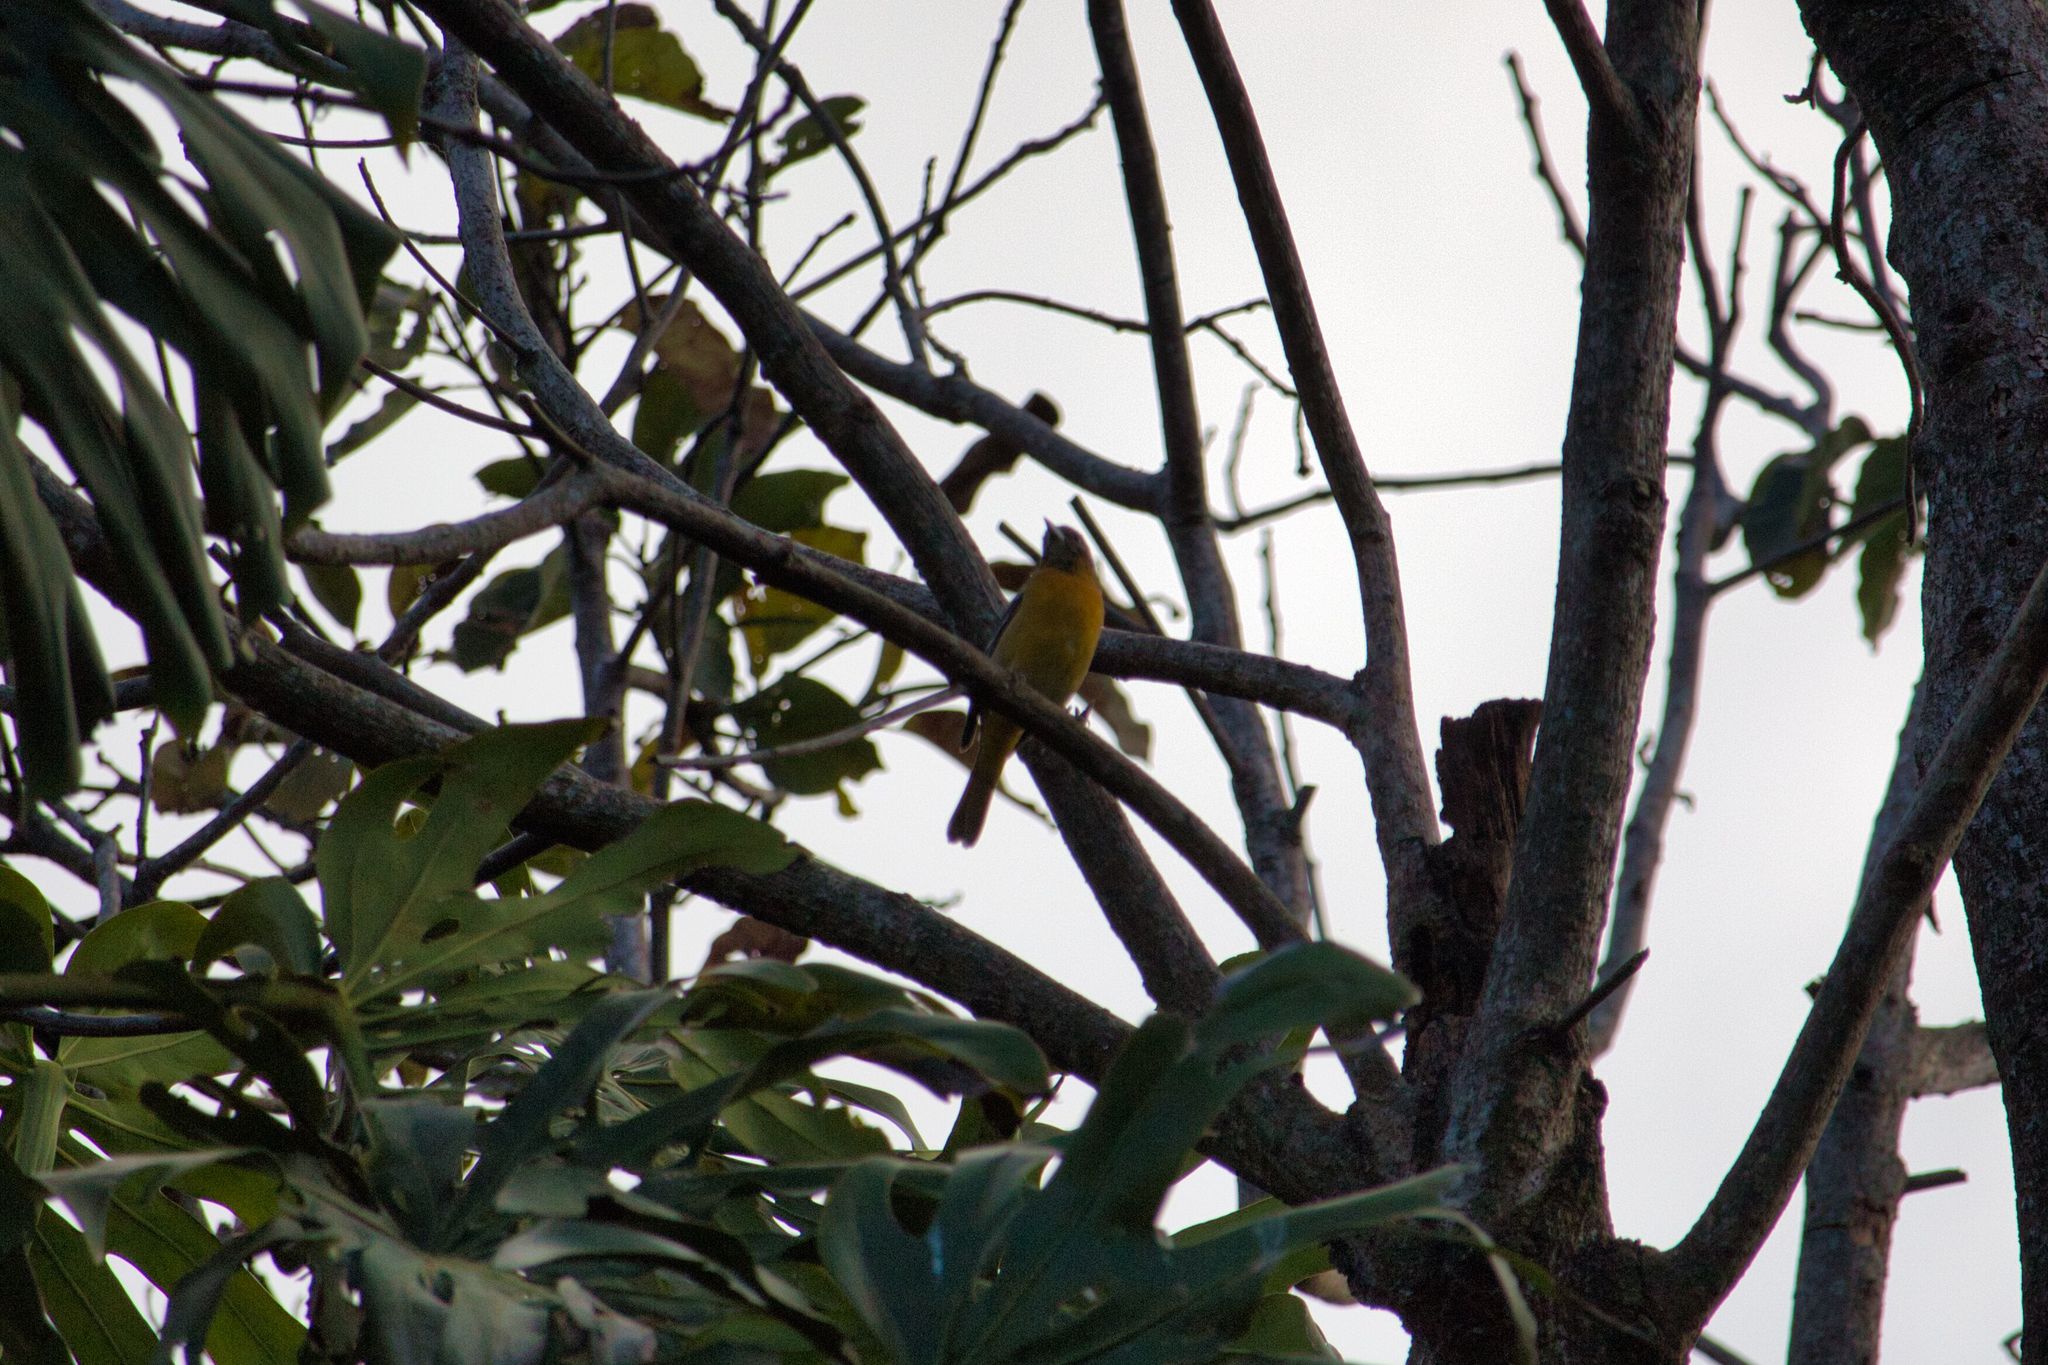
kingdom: Animalia
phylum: Chordata
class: Aves
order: Passeriformes
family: Icteridae
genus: Icterus
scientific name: Icterus galbula
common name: Baltimore oriole
